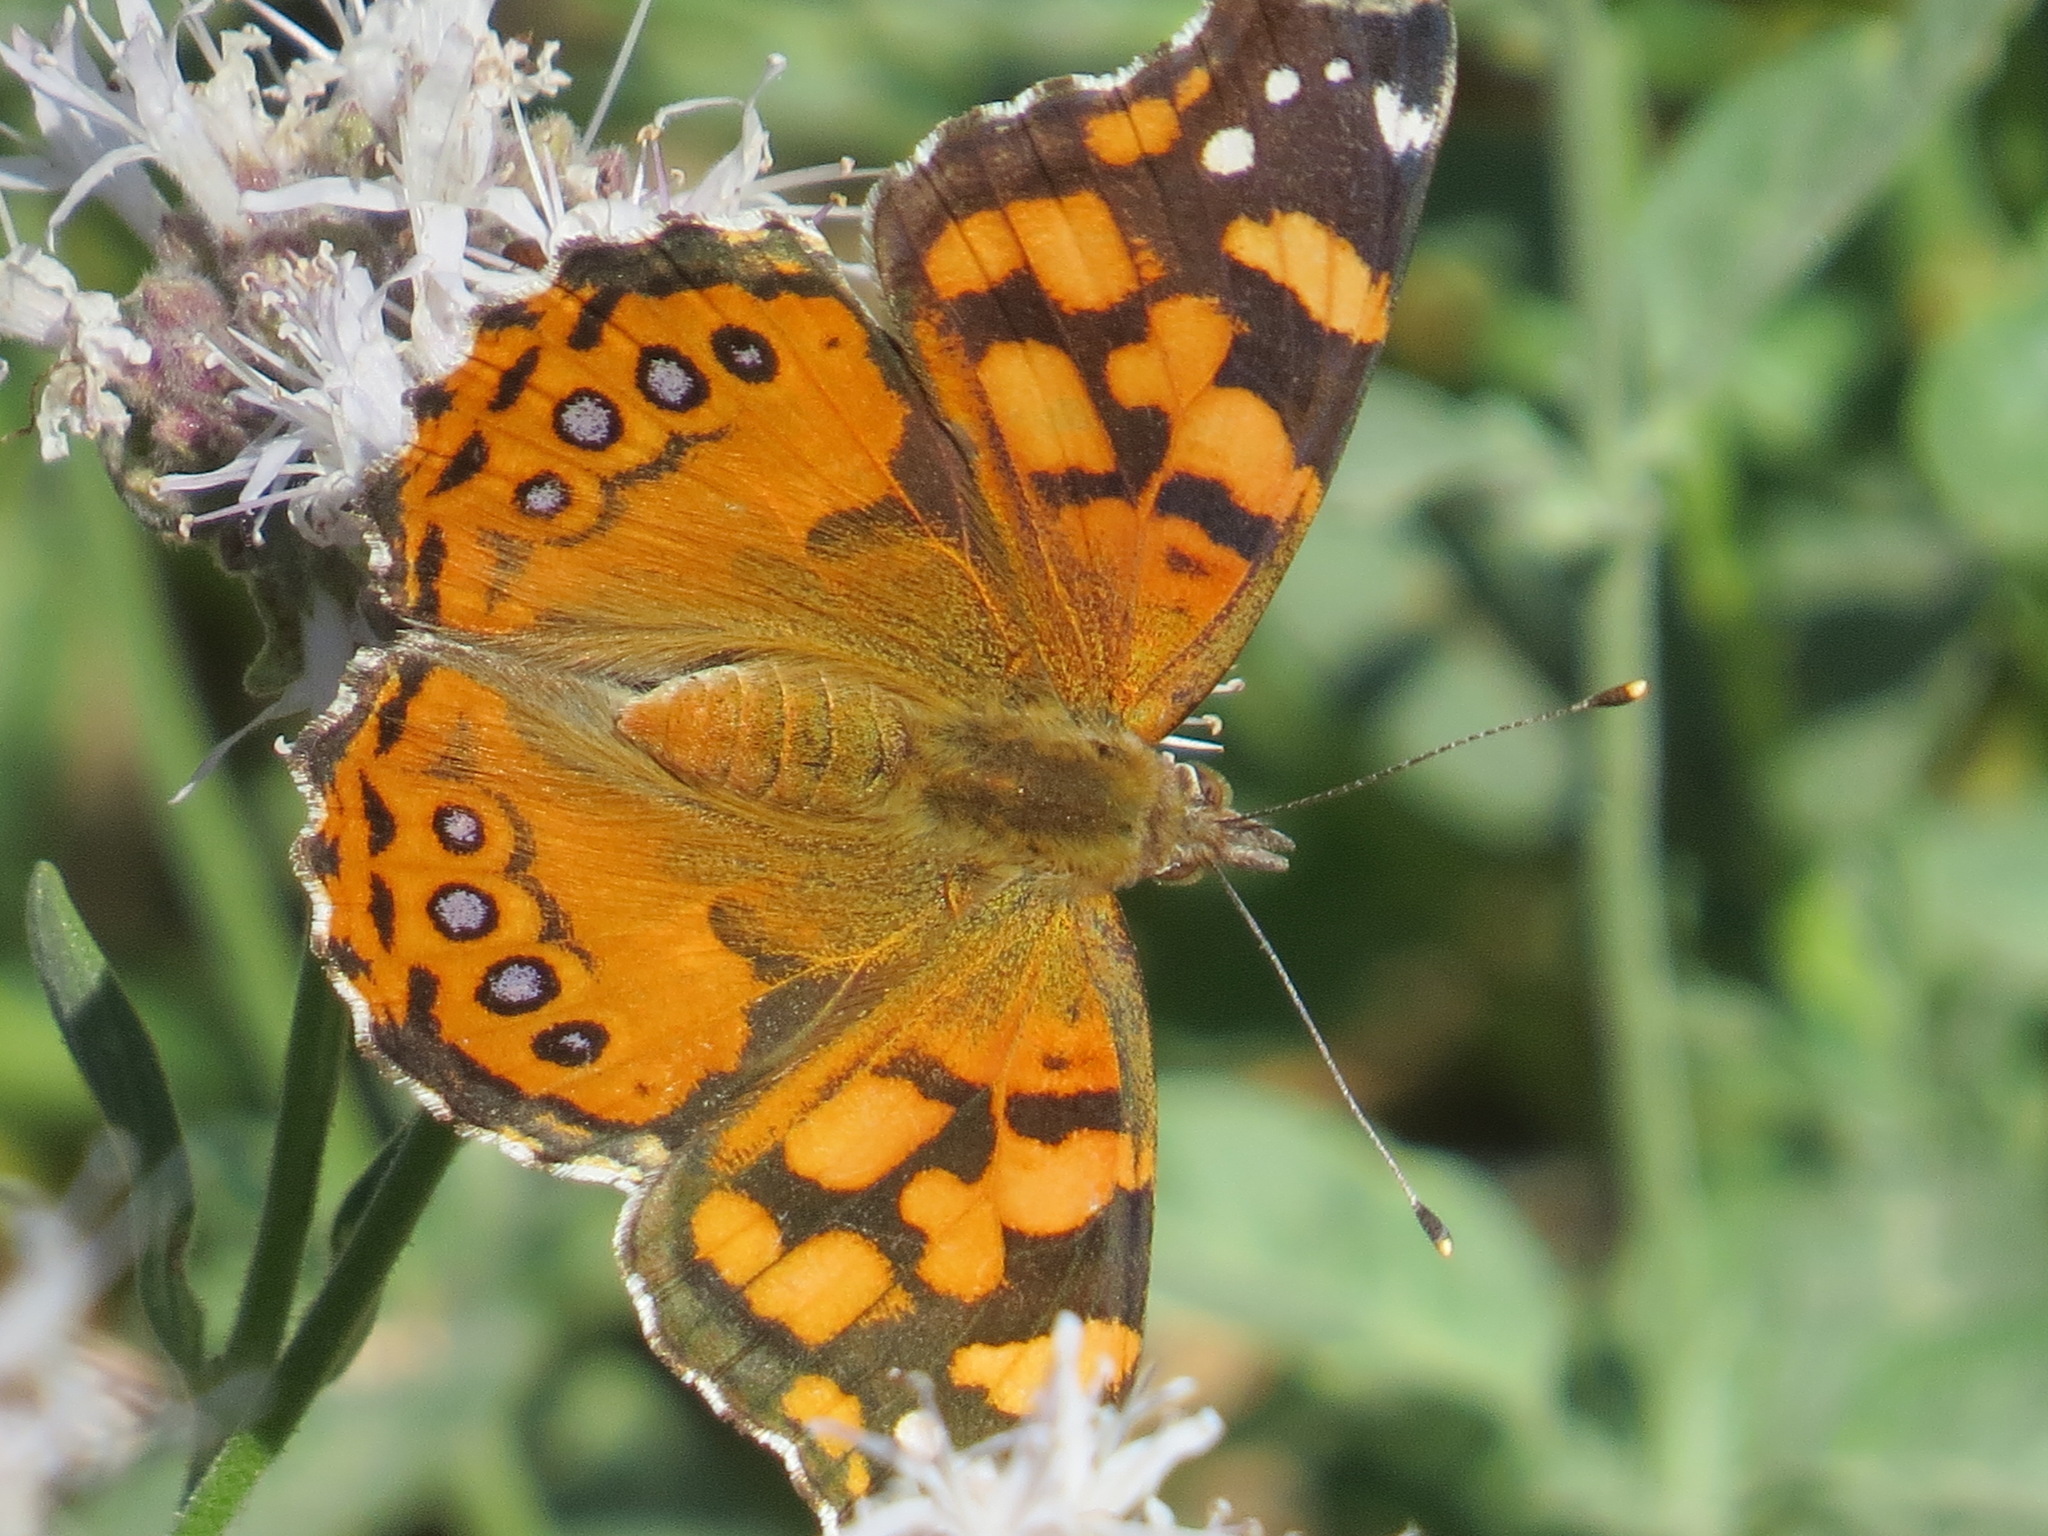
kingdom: Animalia
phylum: Arthropoda
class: Insecta
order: Lepidoptera
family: Nymphalidae
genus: Vanessa
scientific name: Vanessa annabella
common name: West coast lady
